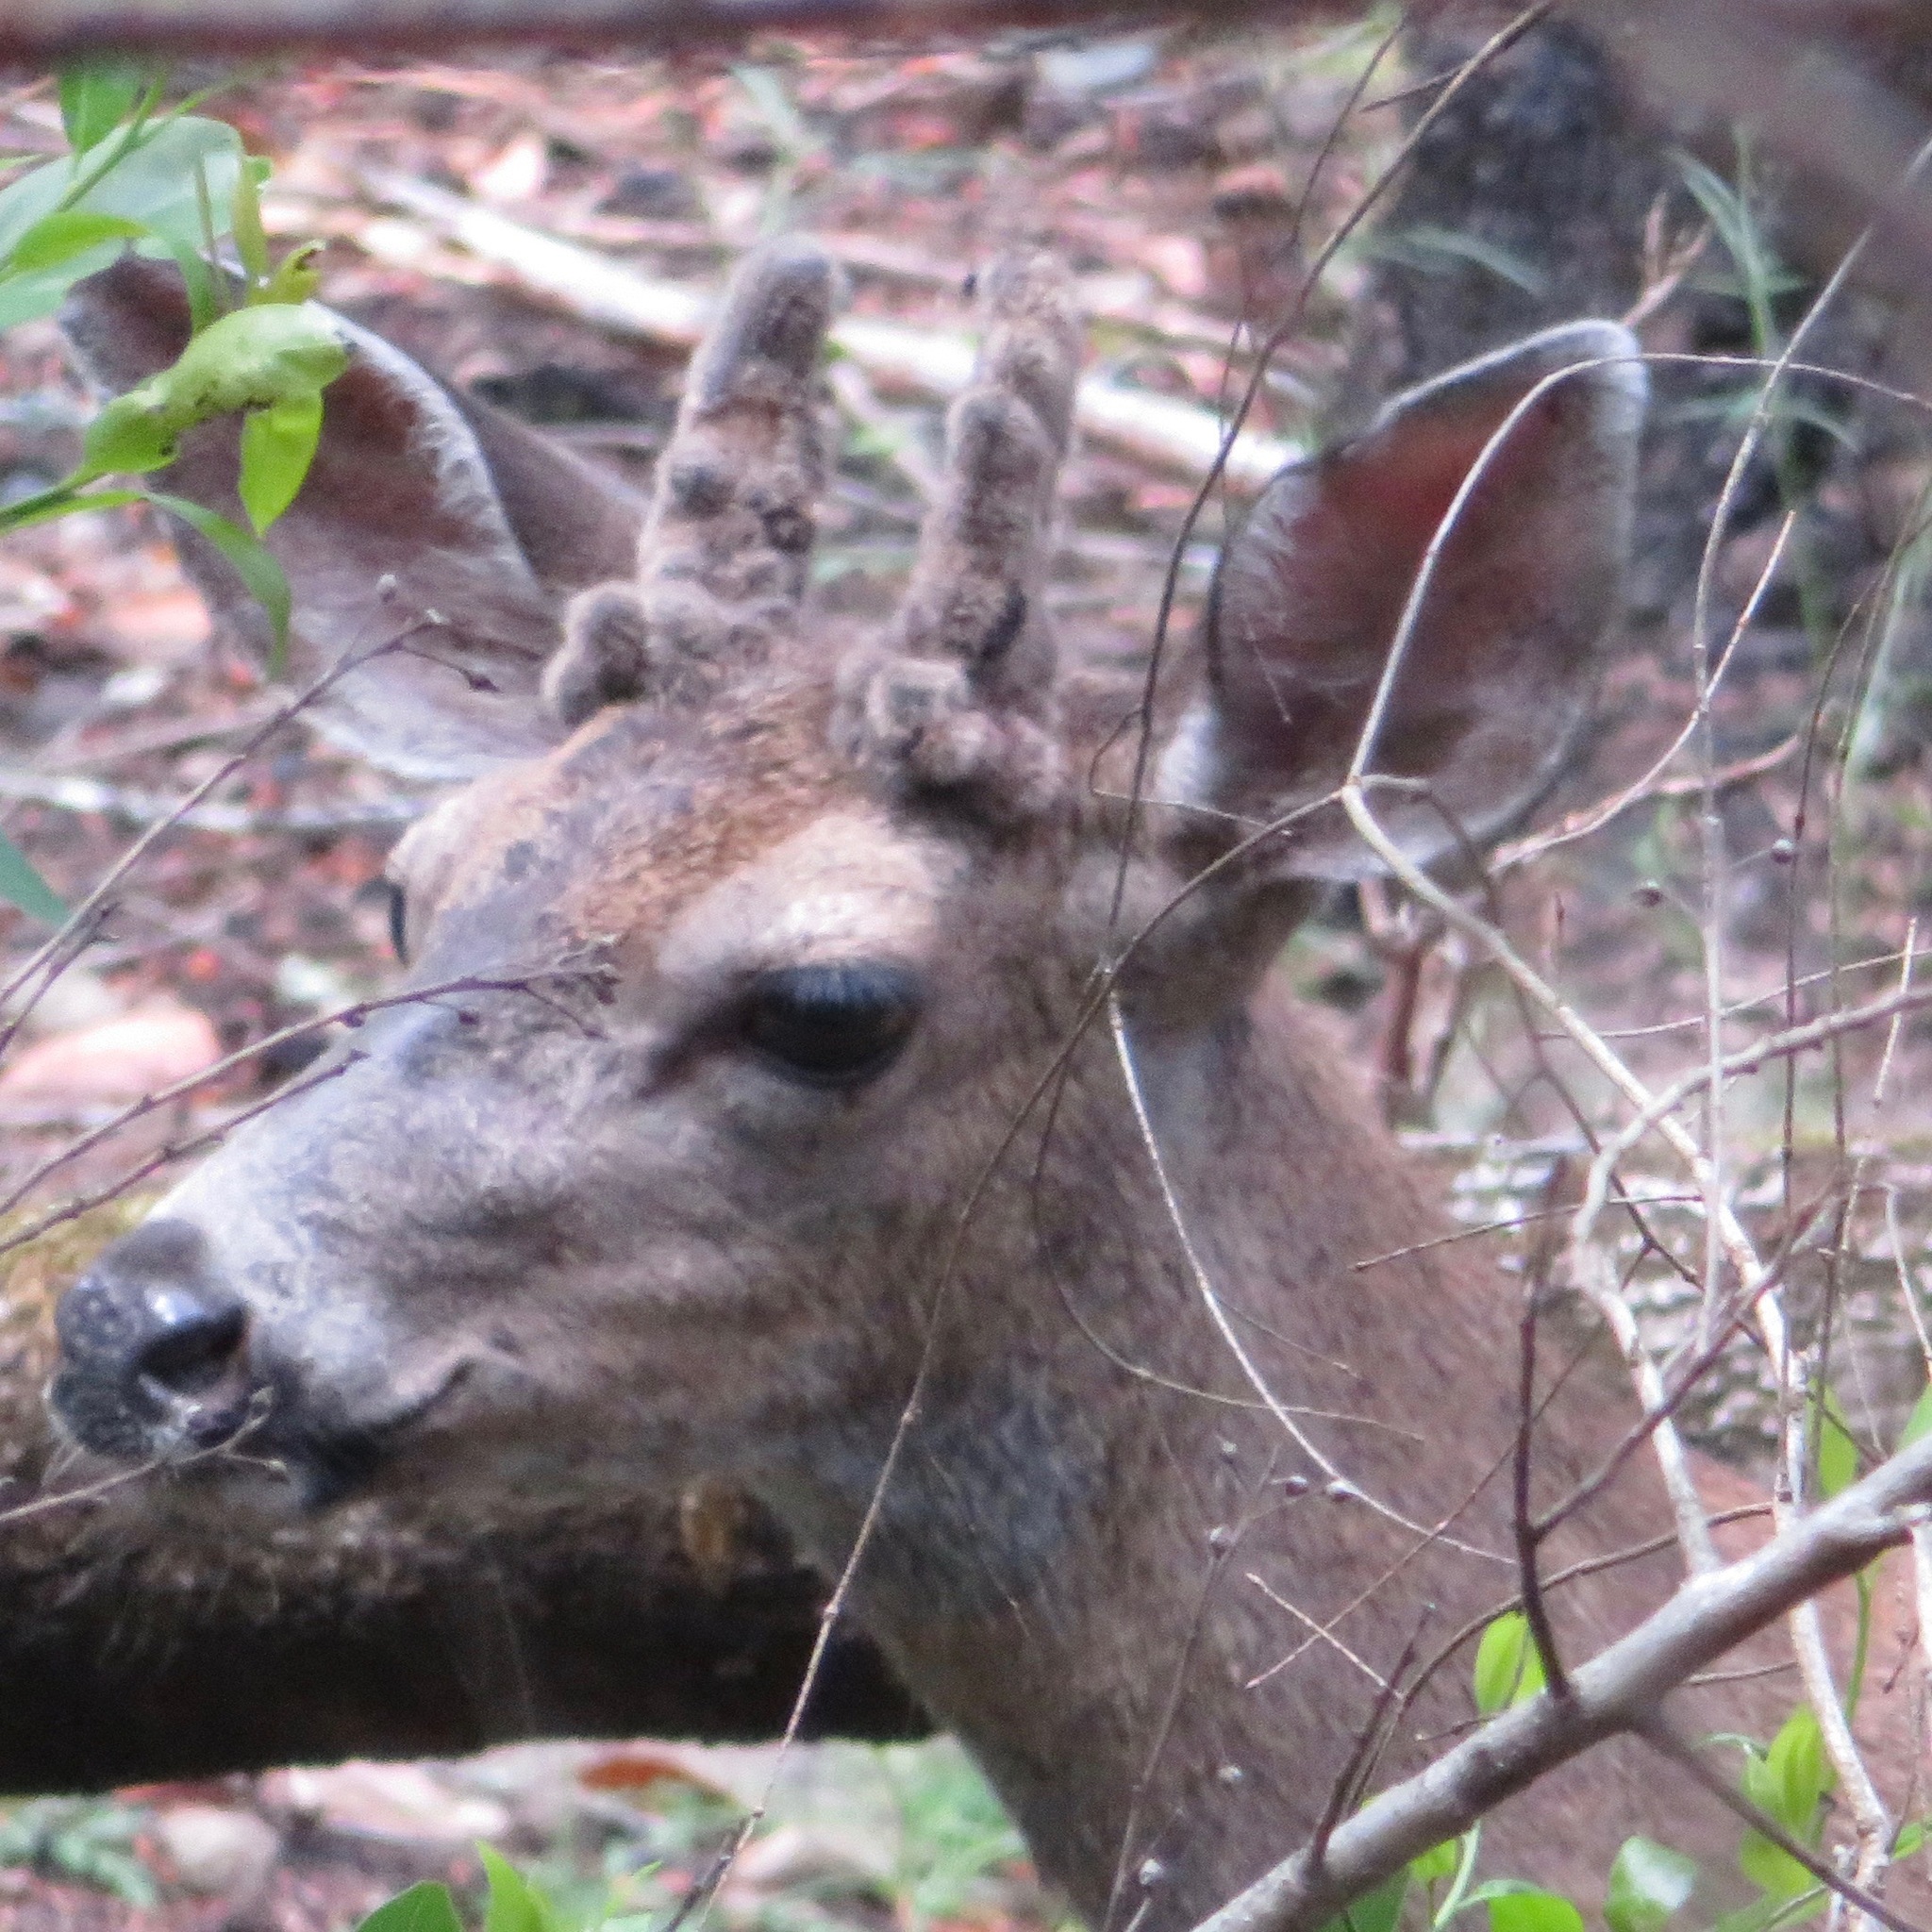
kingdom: Animalia
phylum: Chordata
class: Mammalia
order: Artiodactyla
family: Cervidae
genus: Odocoileus
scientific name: Odocoileus hemionus
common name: Mule deer
